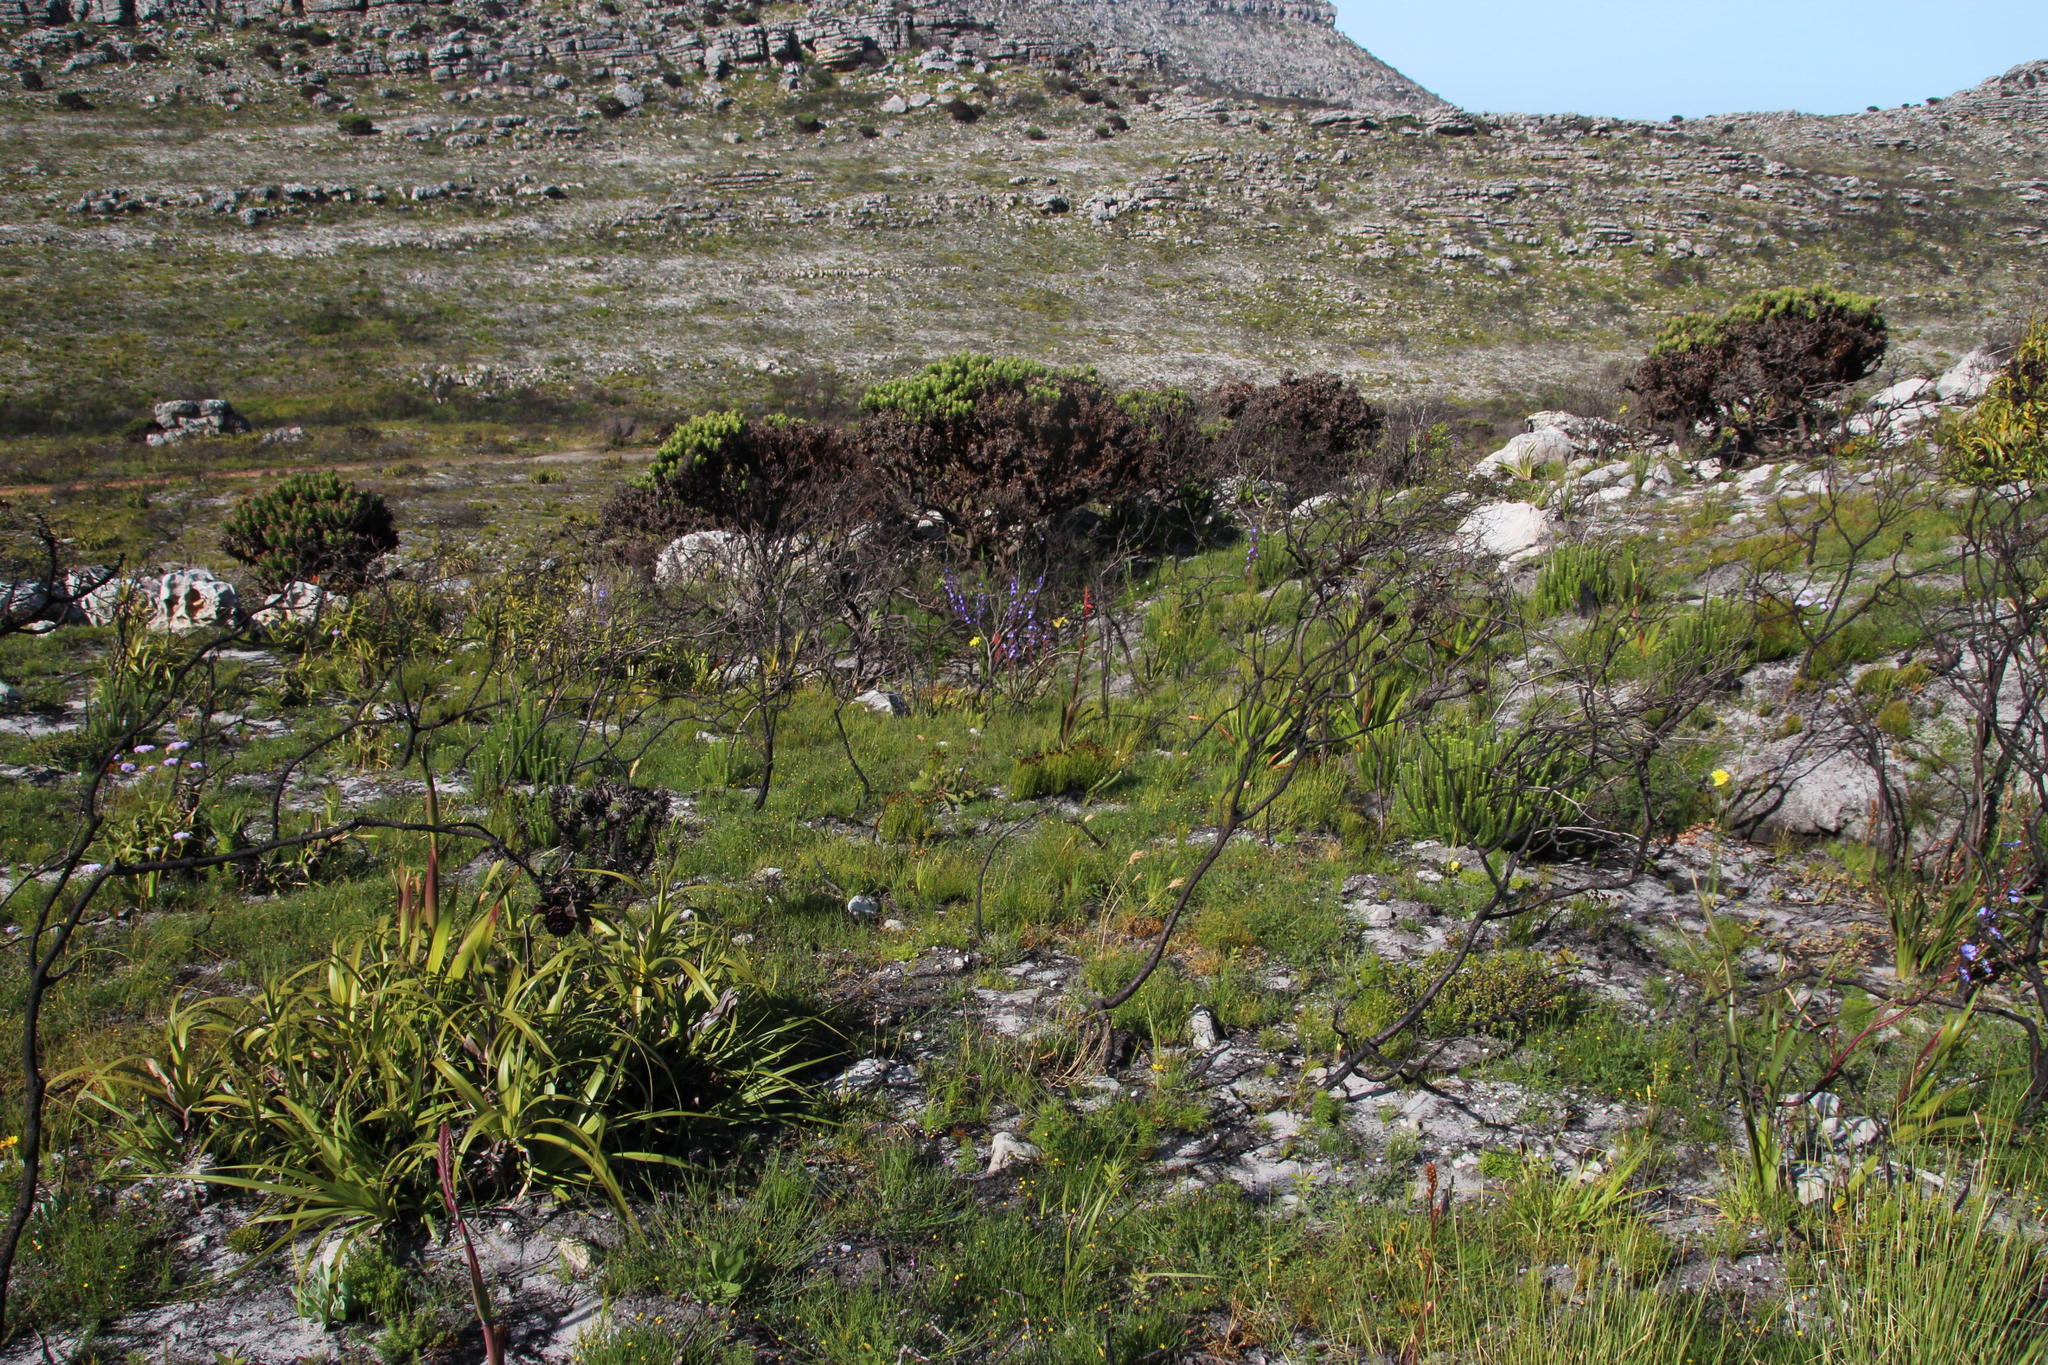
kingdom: Plantae
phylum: Tracheophyta
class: Magnoliopsida
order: Proteales
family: Proteaceae
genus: Mimetes
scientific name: Mimetes fimbriifolius
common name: Fringed bottlebrush
